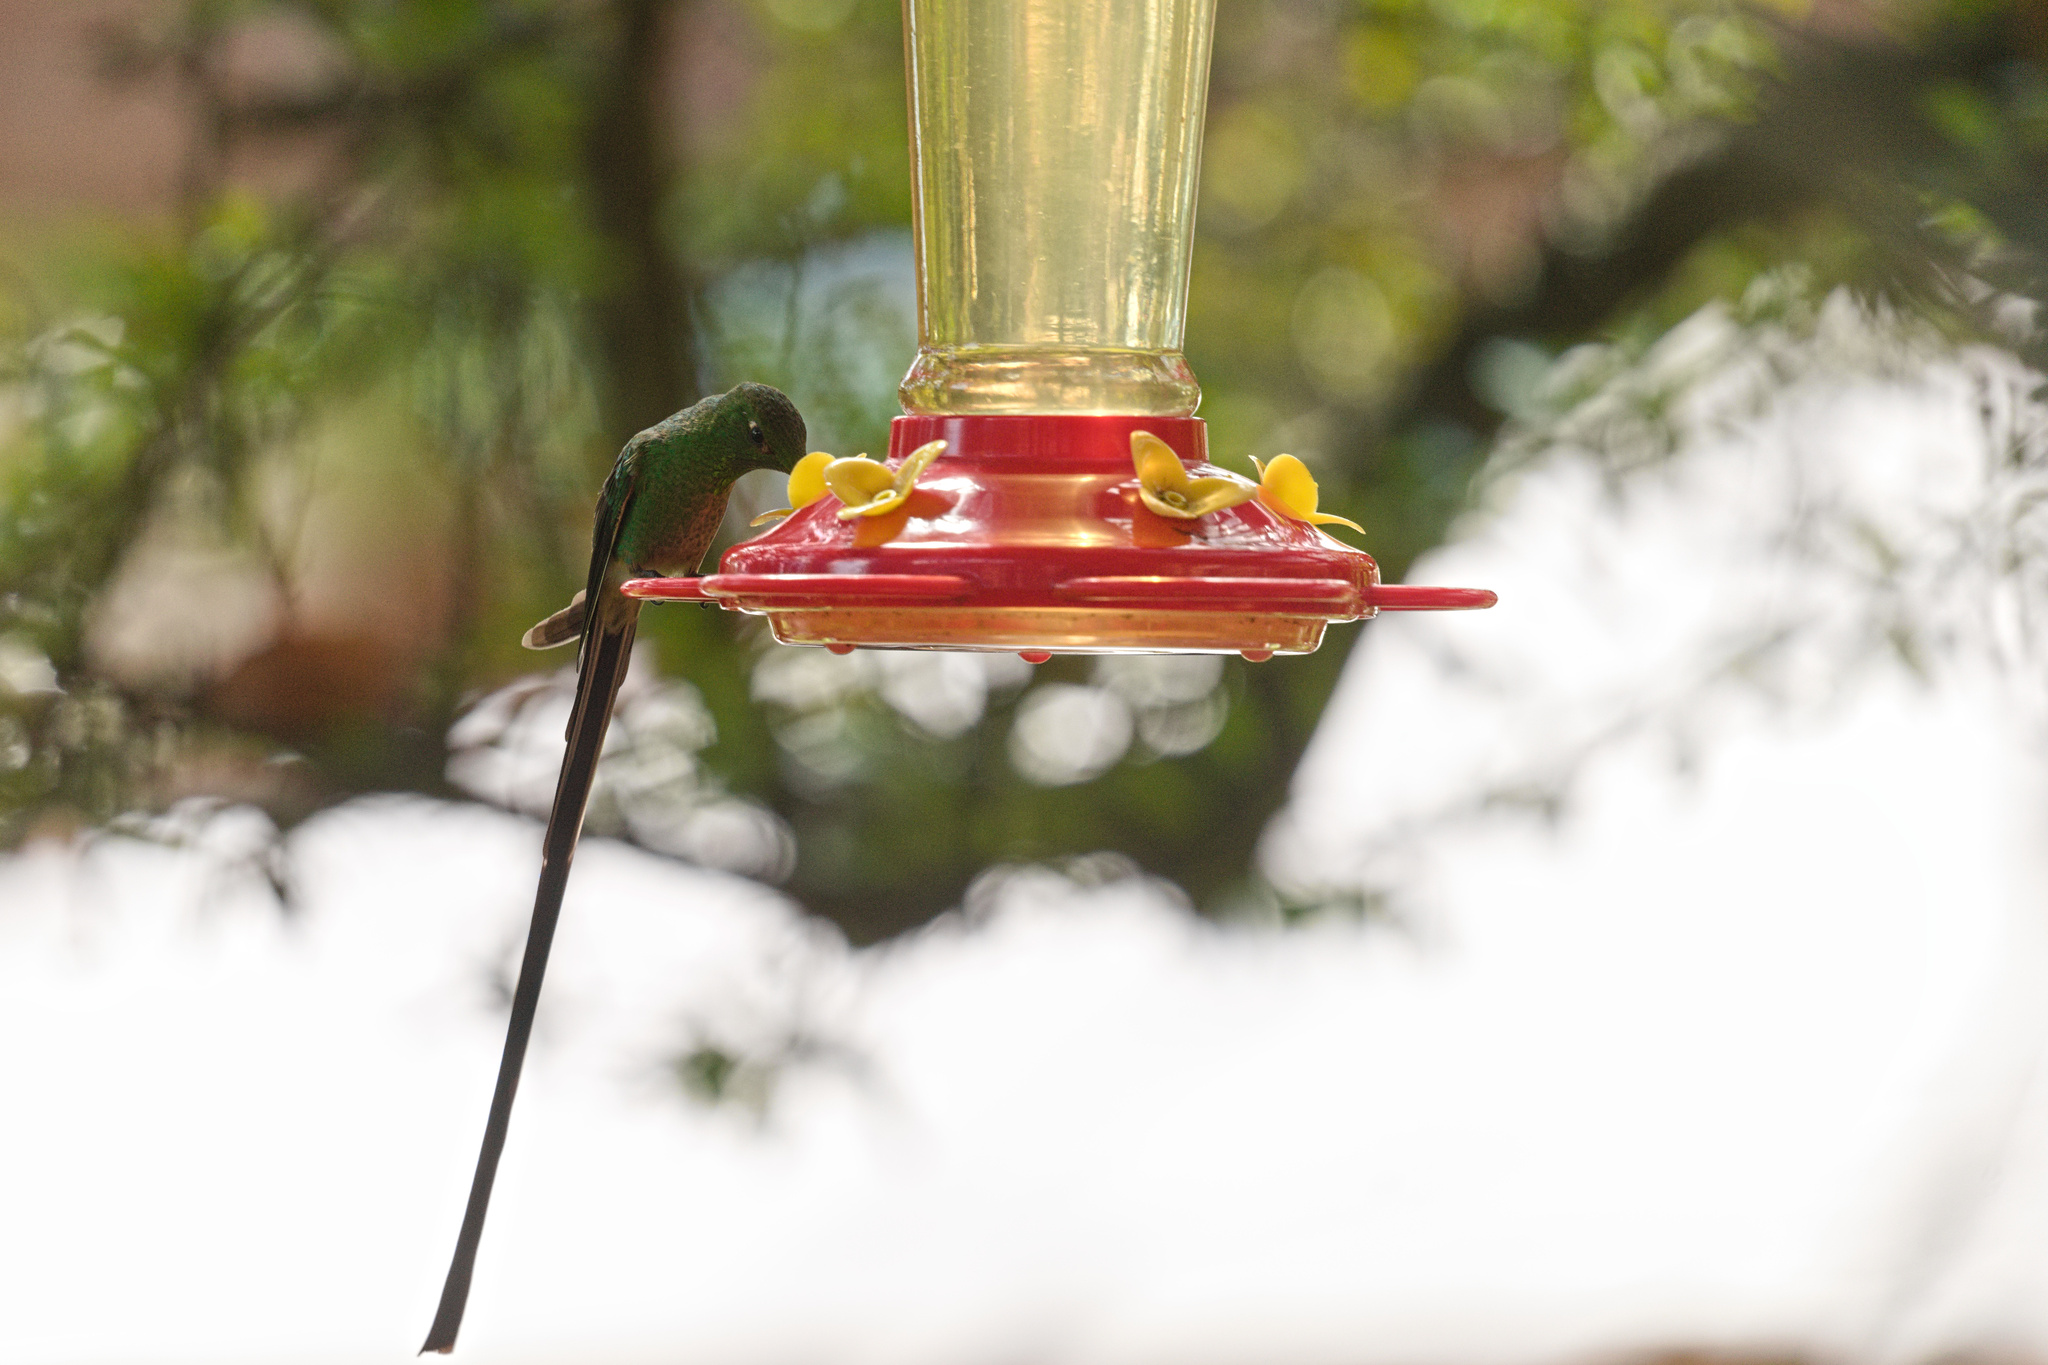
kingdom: Animalia
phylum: Chordata
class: Aves
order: Apodiformes
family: Trochilidae
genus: Lesbia
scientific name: Lesbia victoriae
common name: Black-tailed trainbearer
